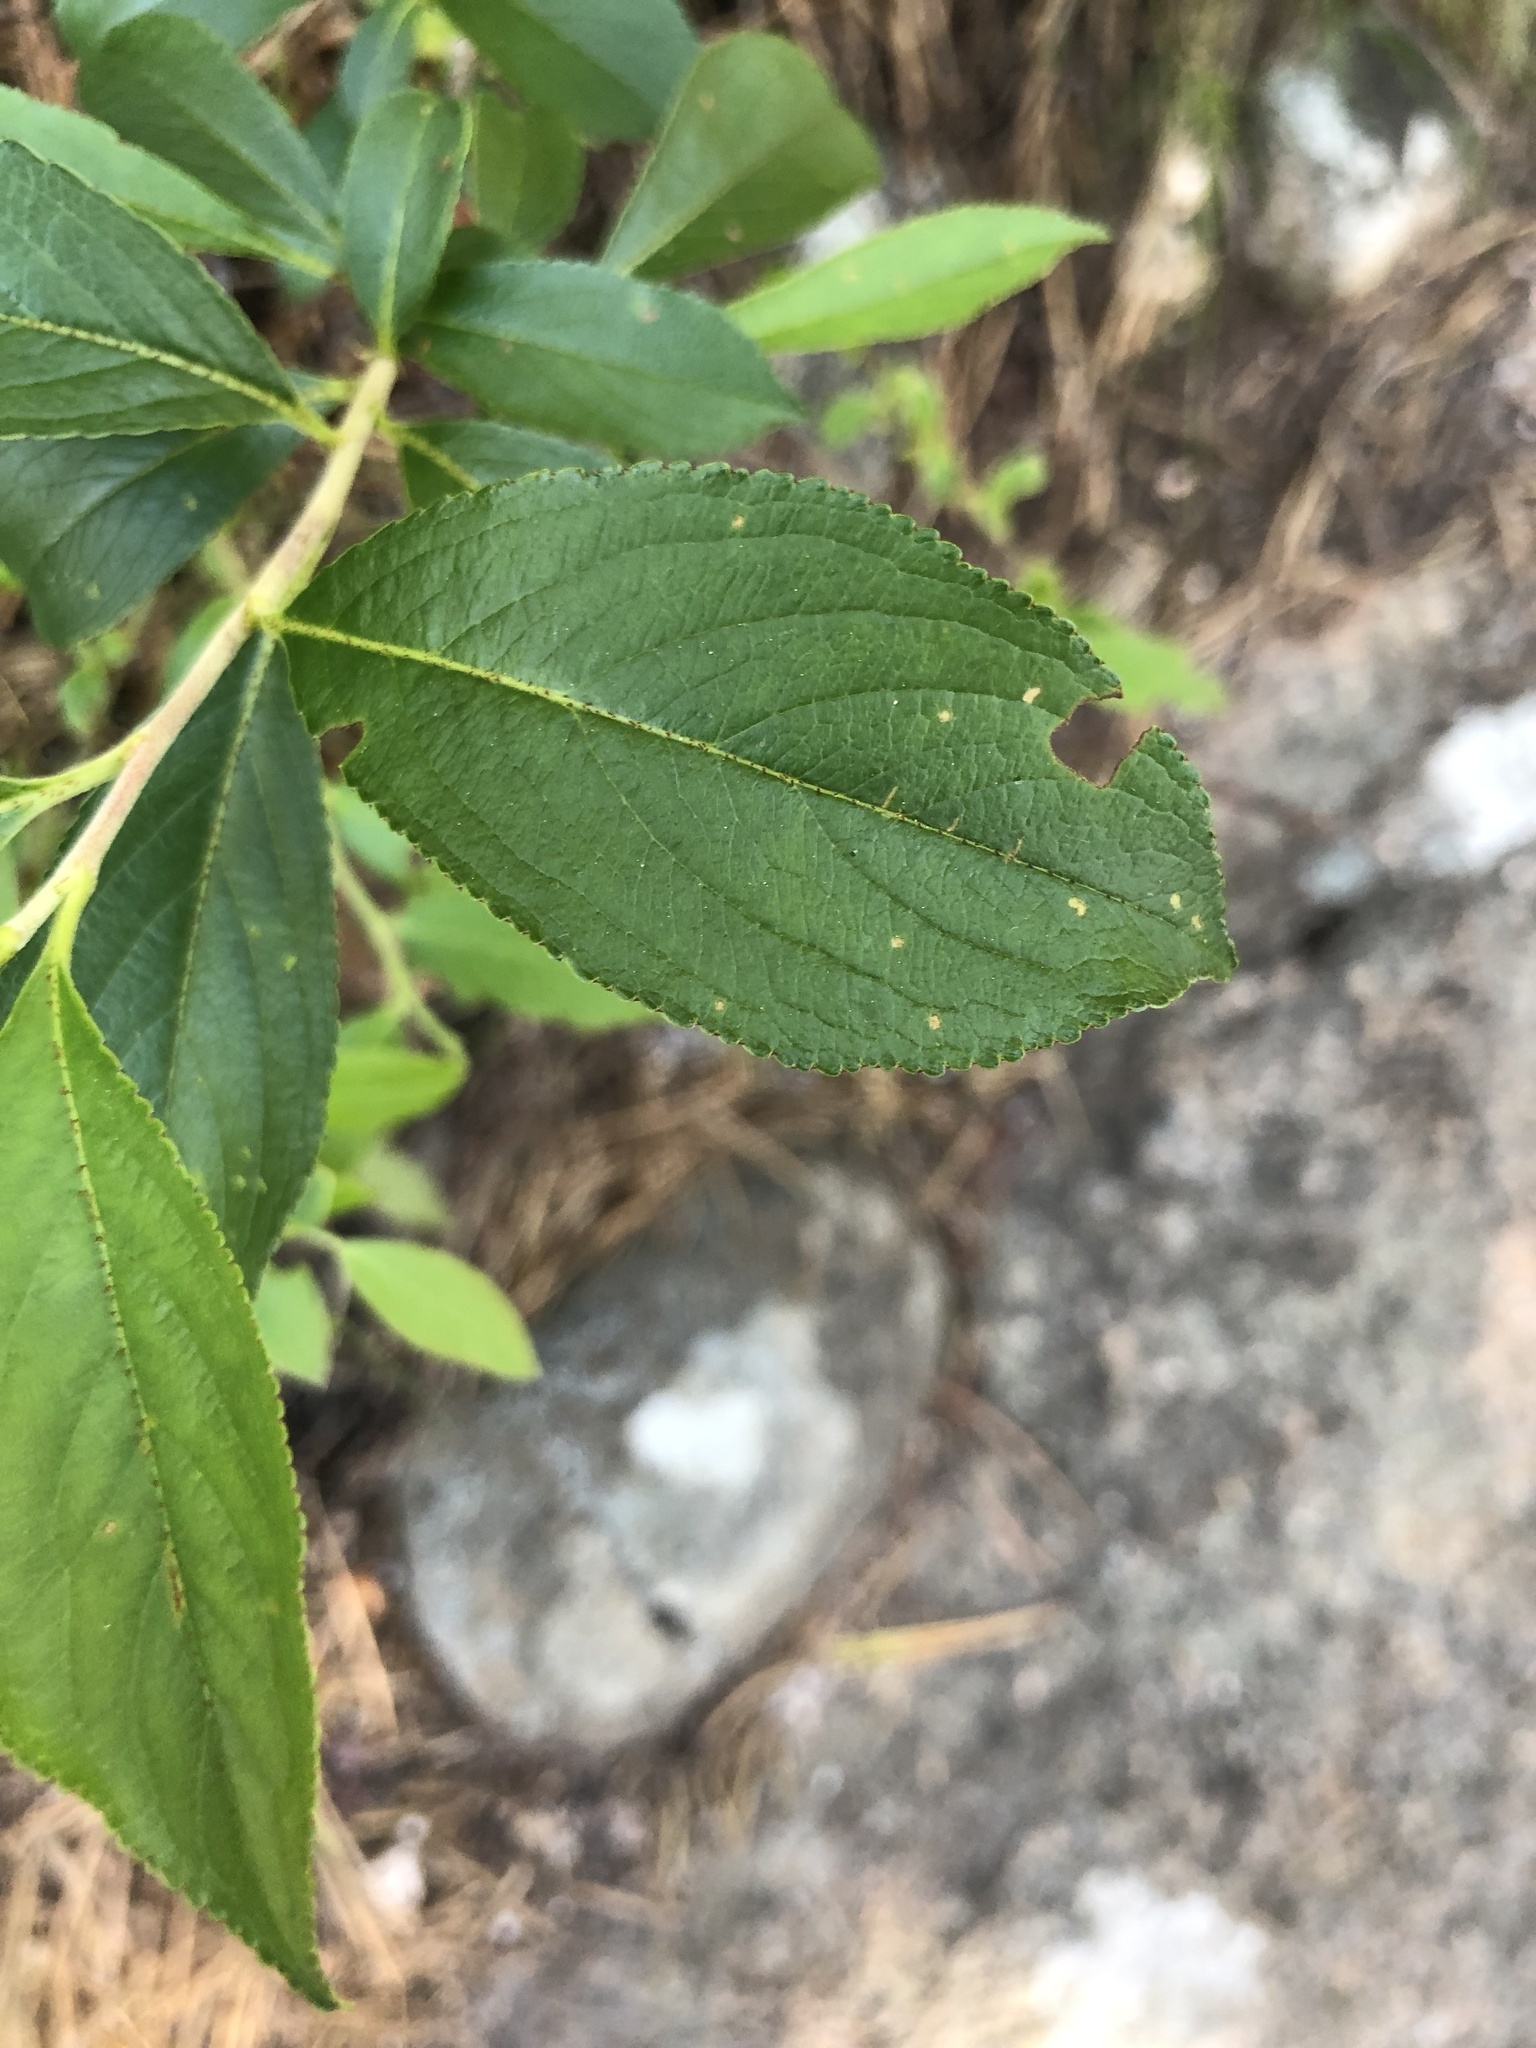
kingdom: Plantae
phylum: Tracheophyta
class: Magnoliopsida
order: Rosales
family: Rosaceae
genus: Aronia
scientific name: Aronia prunifolia
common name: Purple chokeberry
